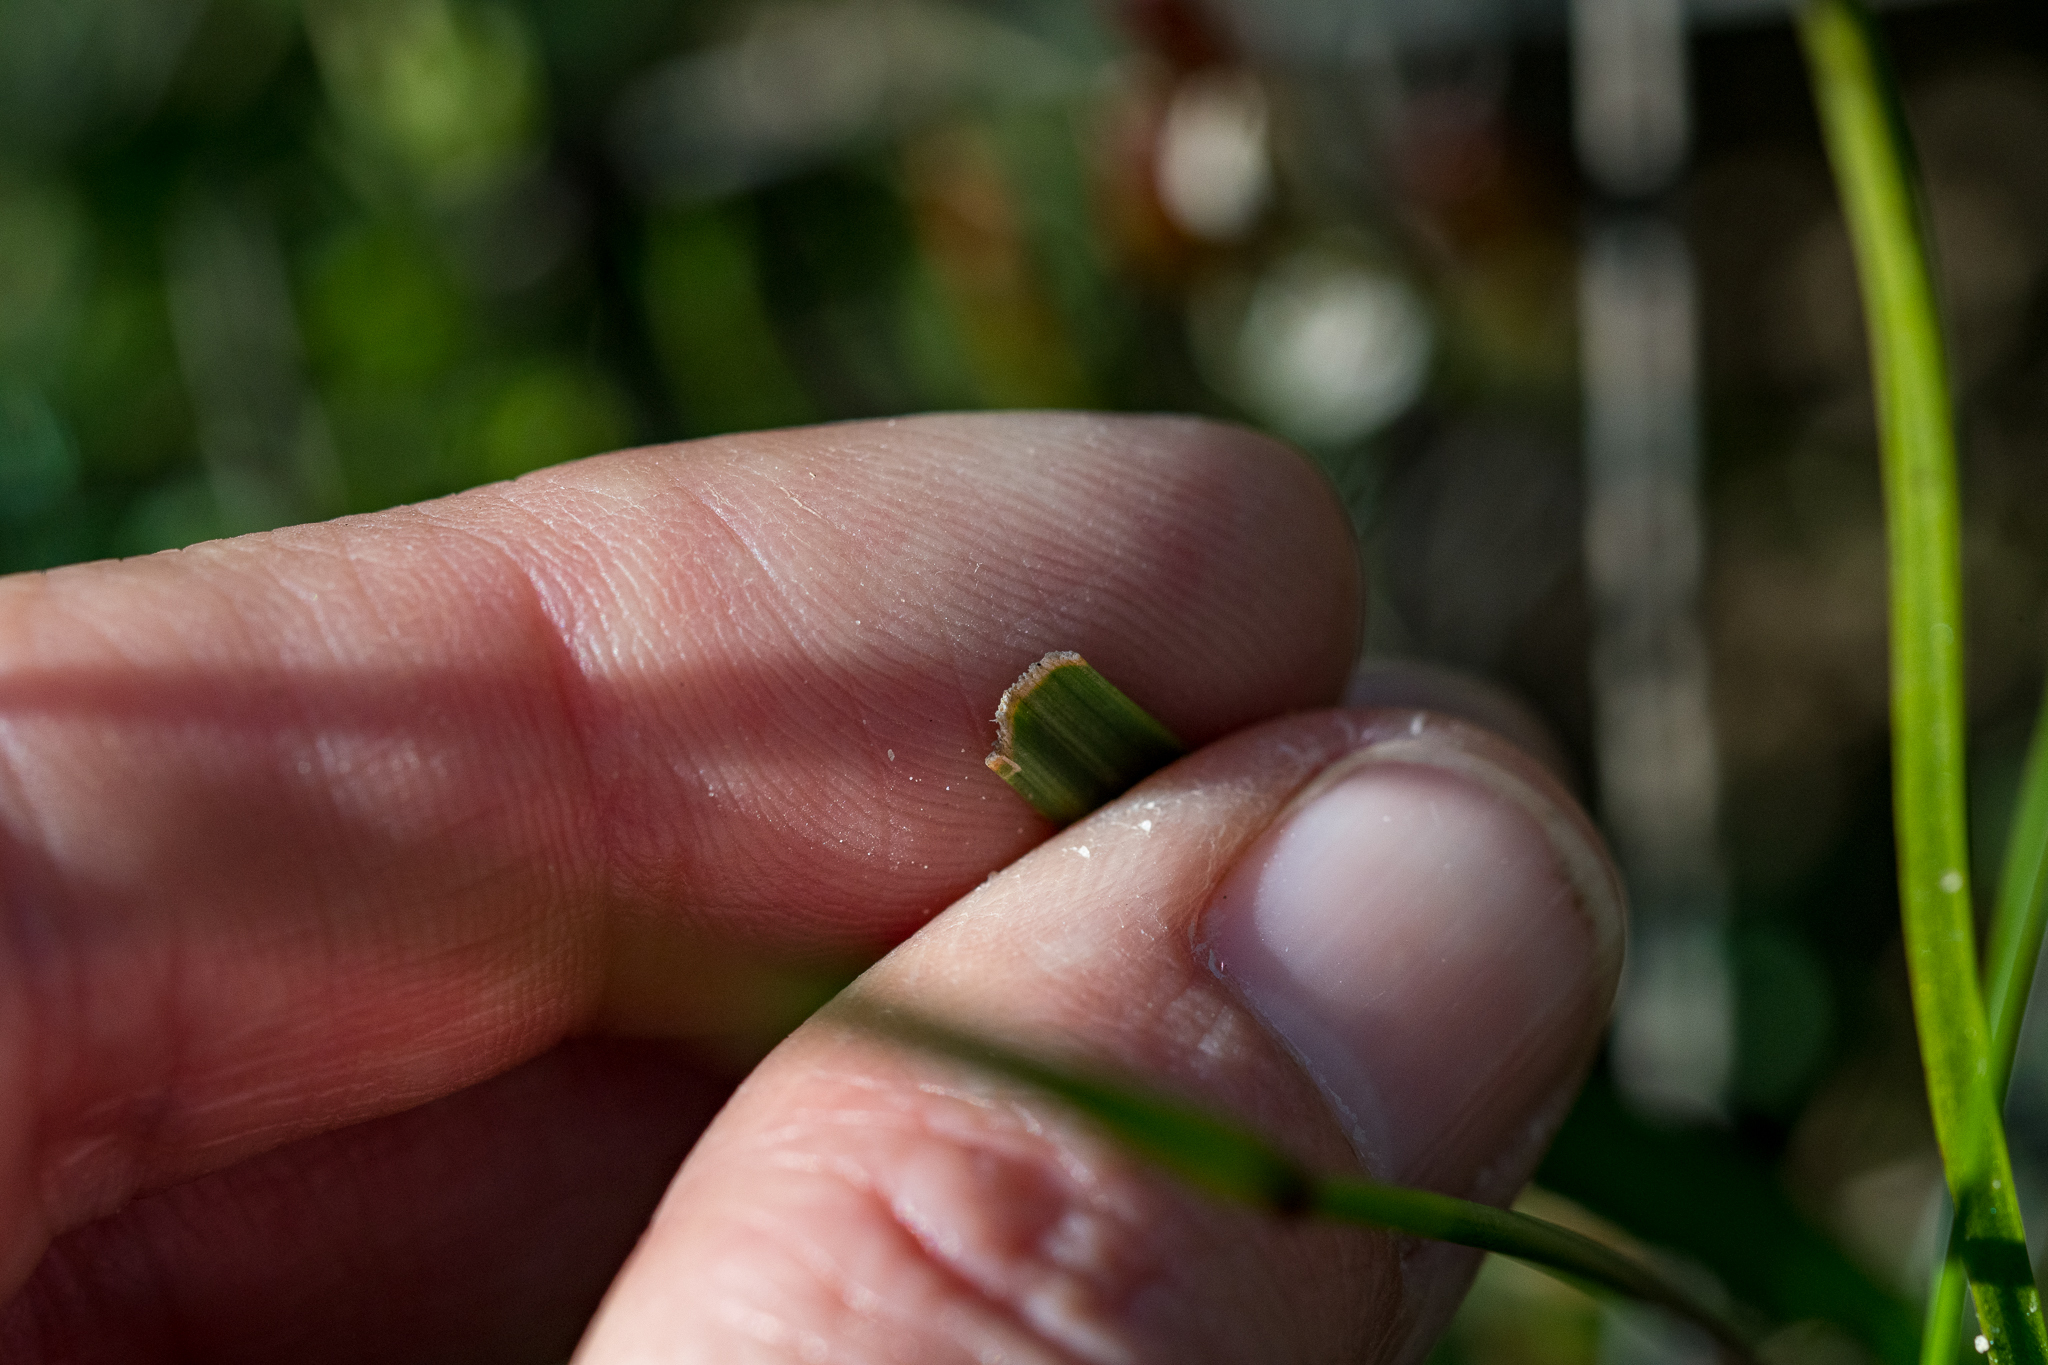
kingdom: Plantae
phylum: Tracheophyta
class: Liliopsida
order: Asparagales
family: Iridaceae
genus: Moraea
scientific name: Moraea tripetala
